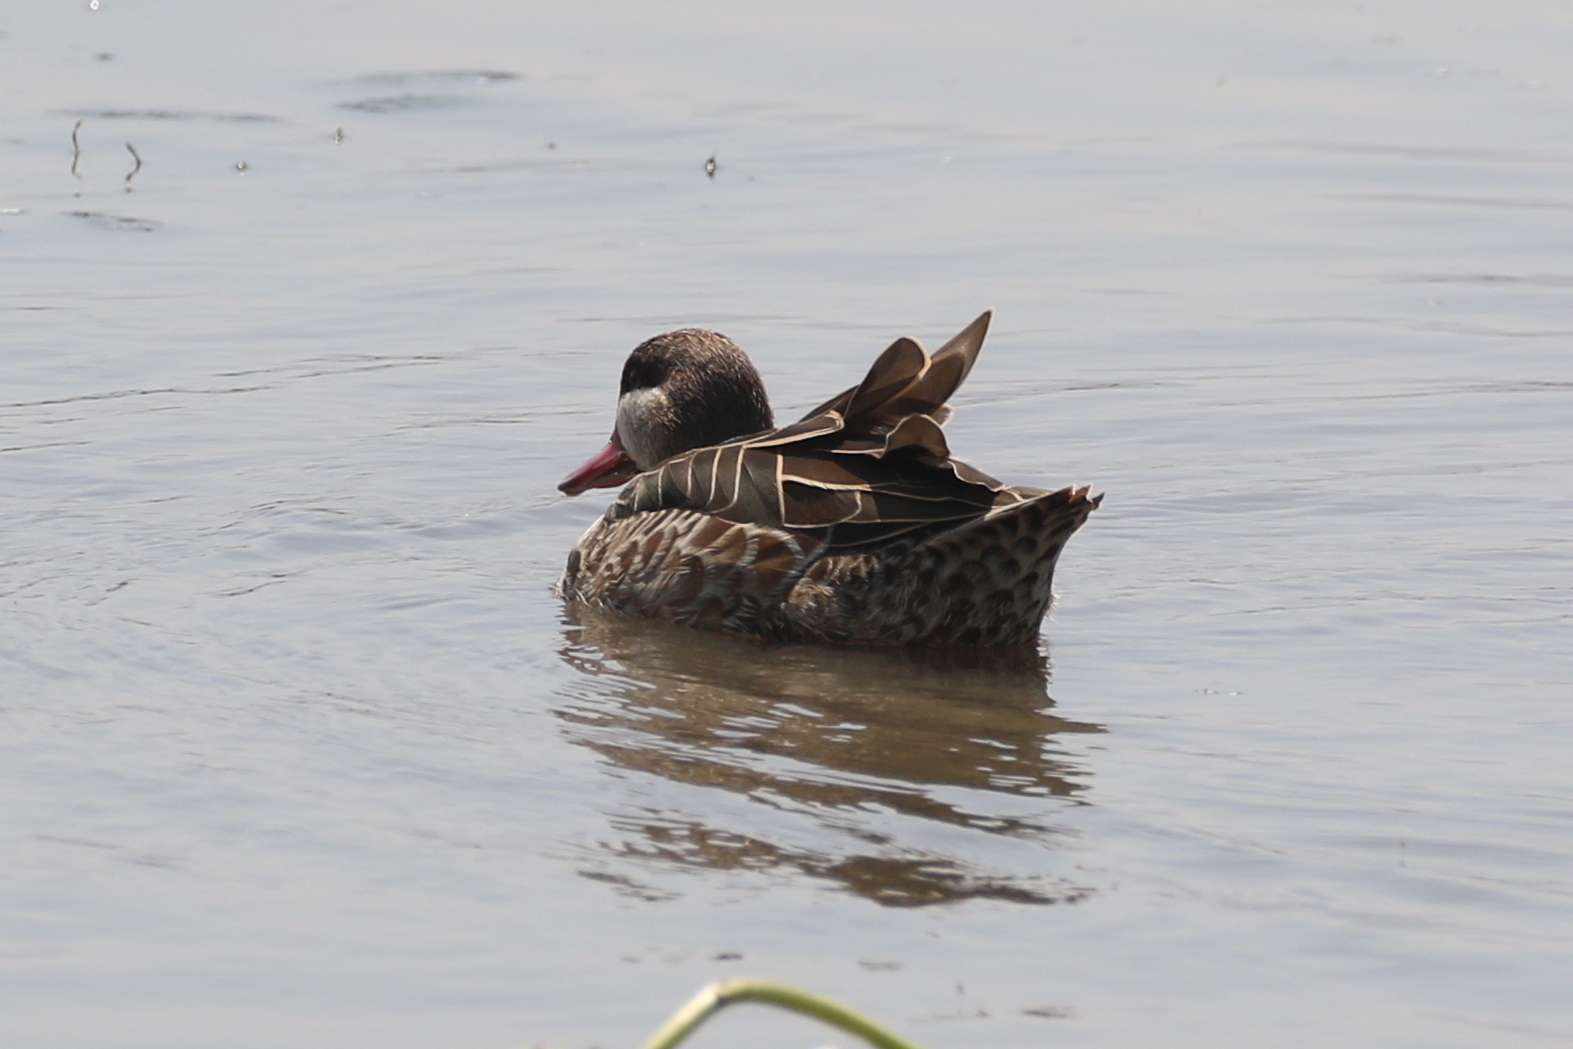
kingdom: Animalia
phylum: Chordata
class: Aves
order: Anseriformes
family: Anatidae
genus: Anas
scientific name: Anas erythrorhyncha
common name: Red-billed teal
